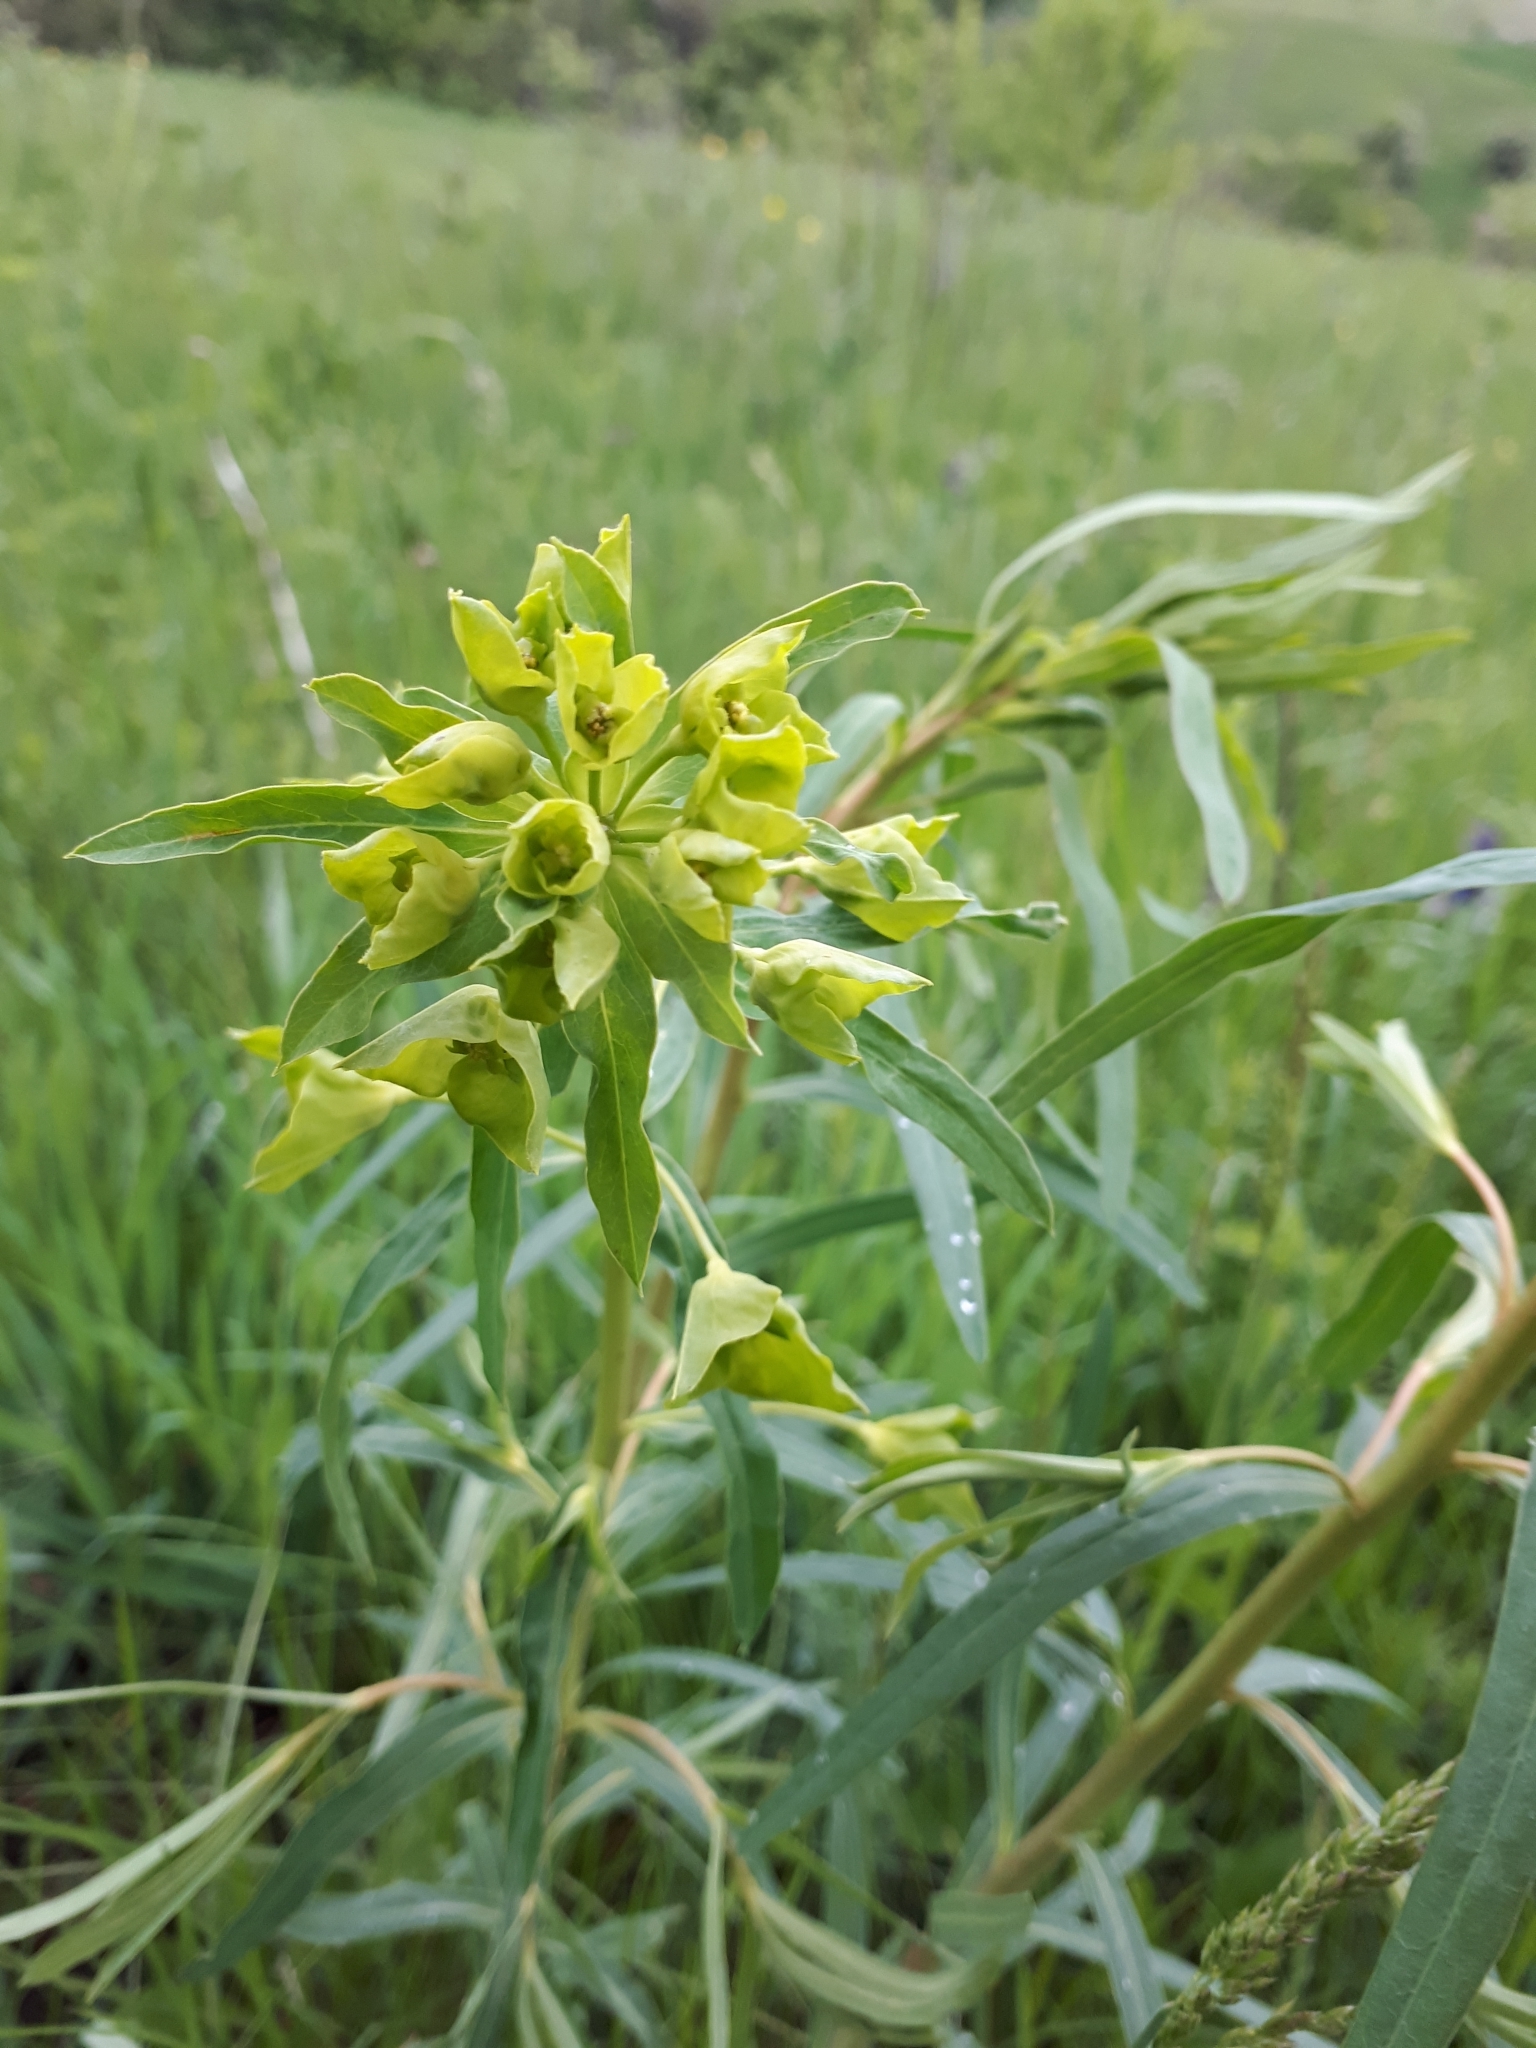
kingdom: Plantae
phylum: Tracheophyta
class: Magnoliopsida
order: Malpighiales
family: Euphorbiaceae
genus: Euphorbia
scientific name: Euphorbia virgata
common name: Leafy spurge
